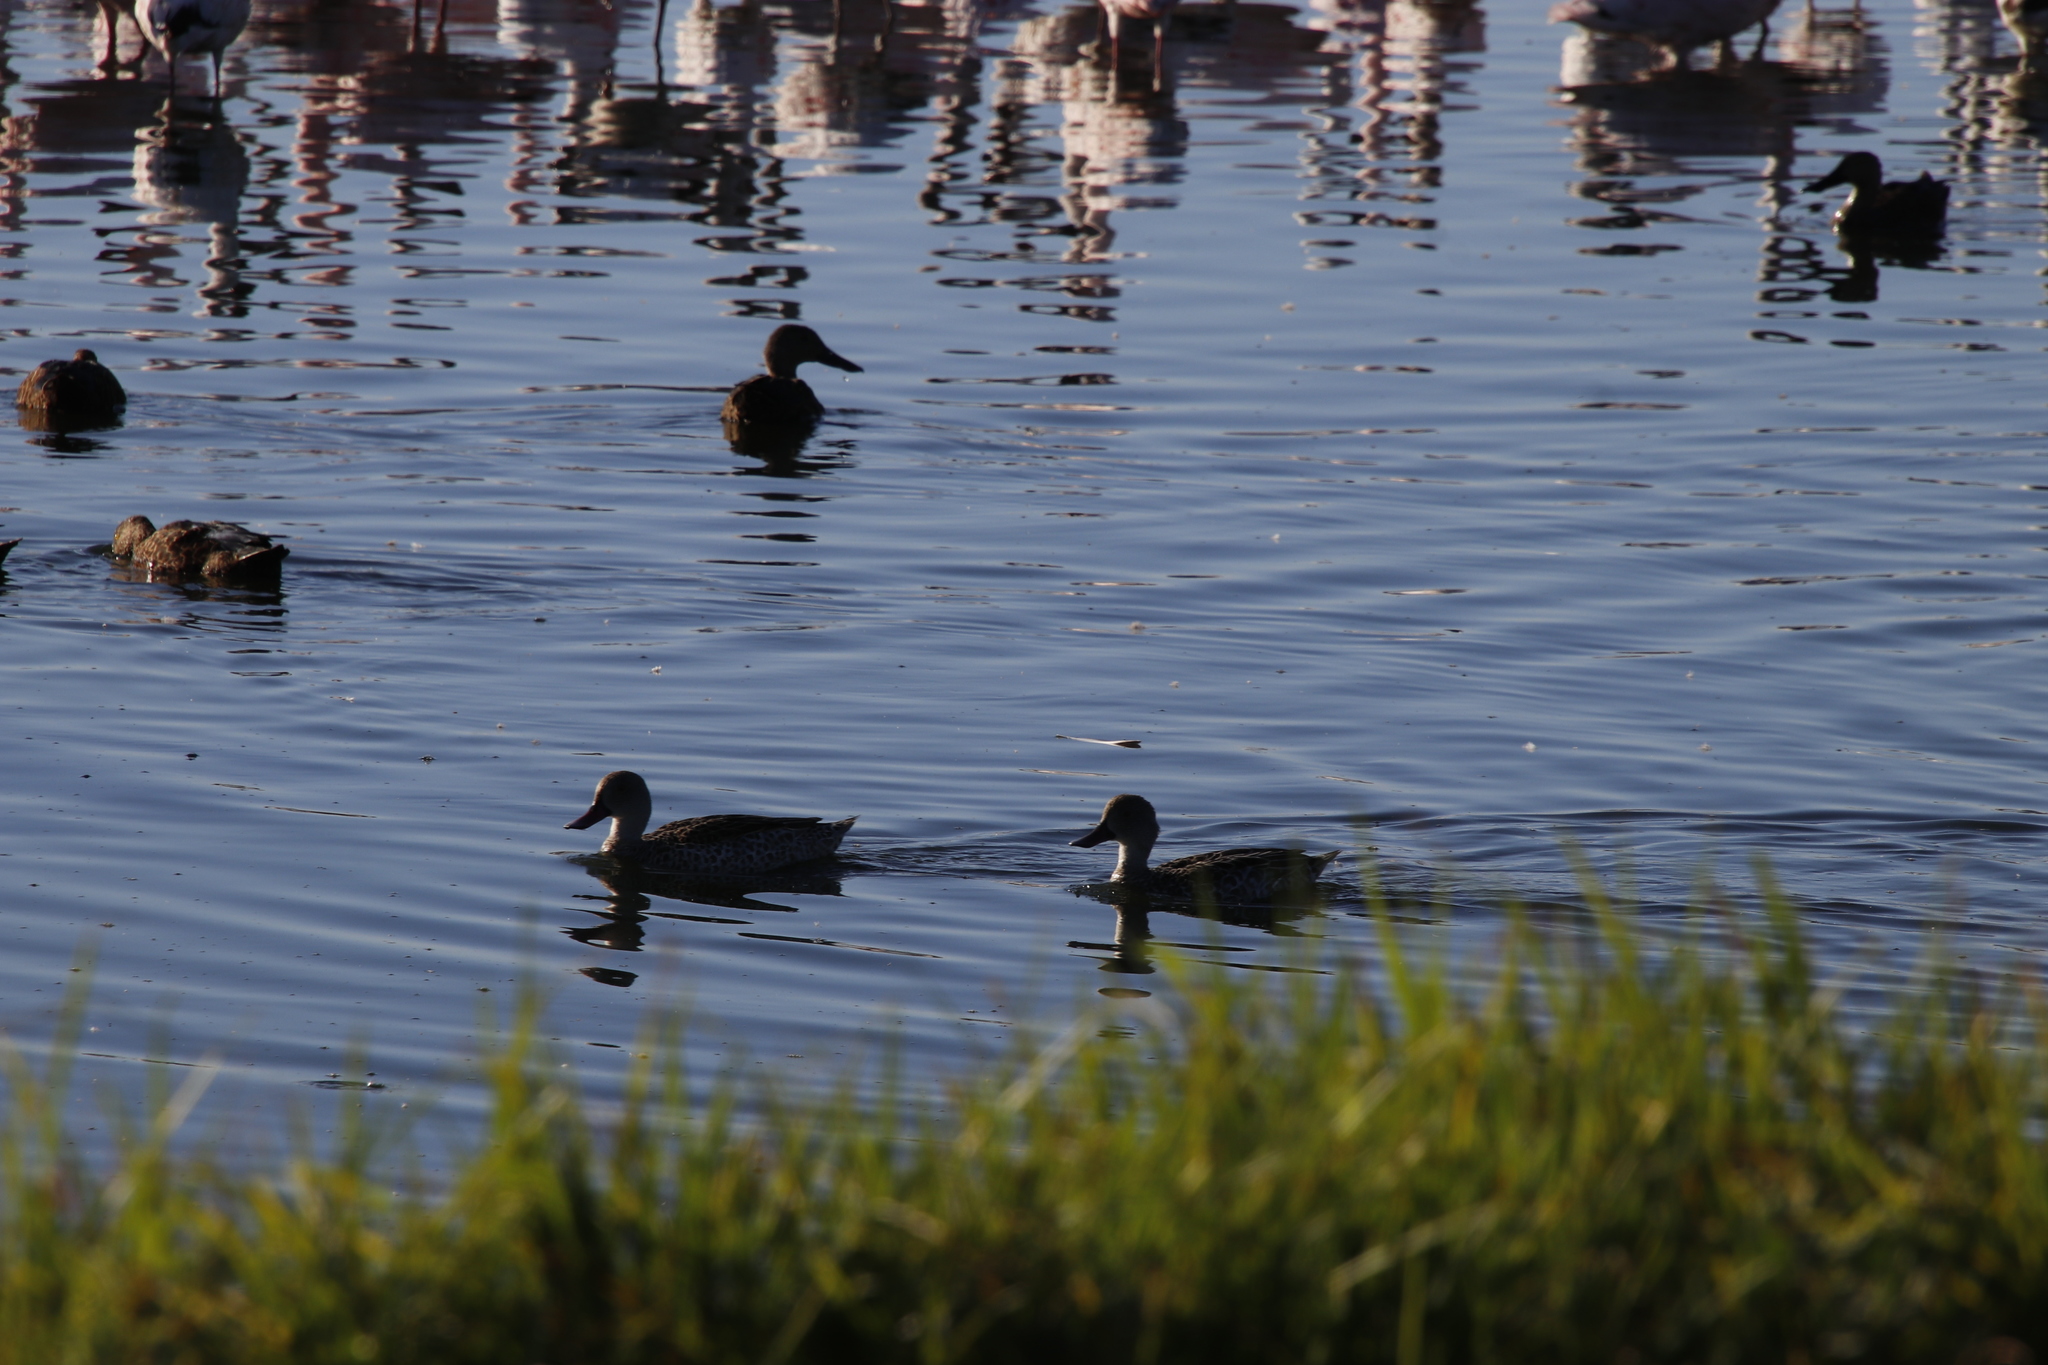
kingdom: Animalia
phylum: Chordata
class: Aves
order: Anseriformes
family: Anatidae
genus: Spatula
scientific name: Spatula smithii
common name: Cape shoveler
